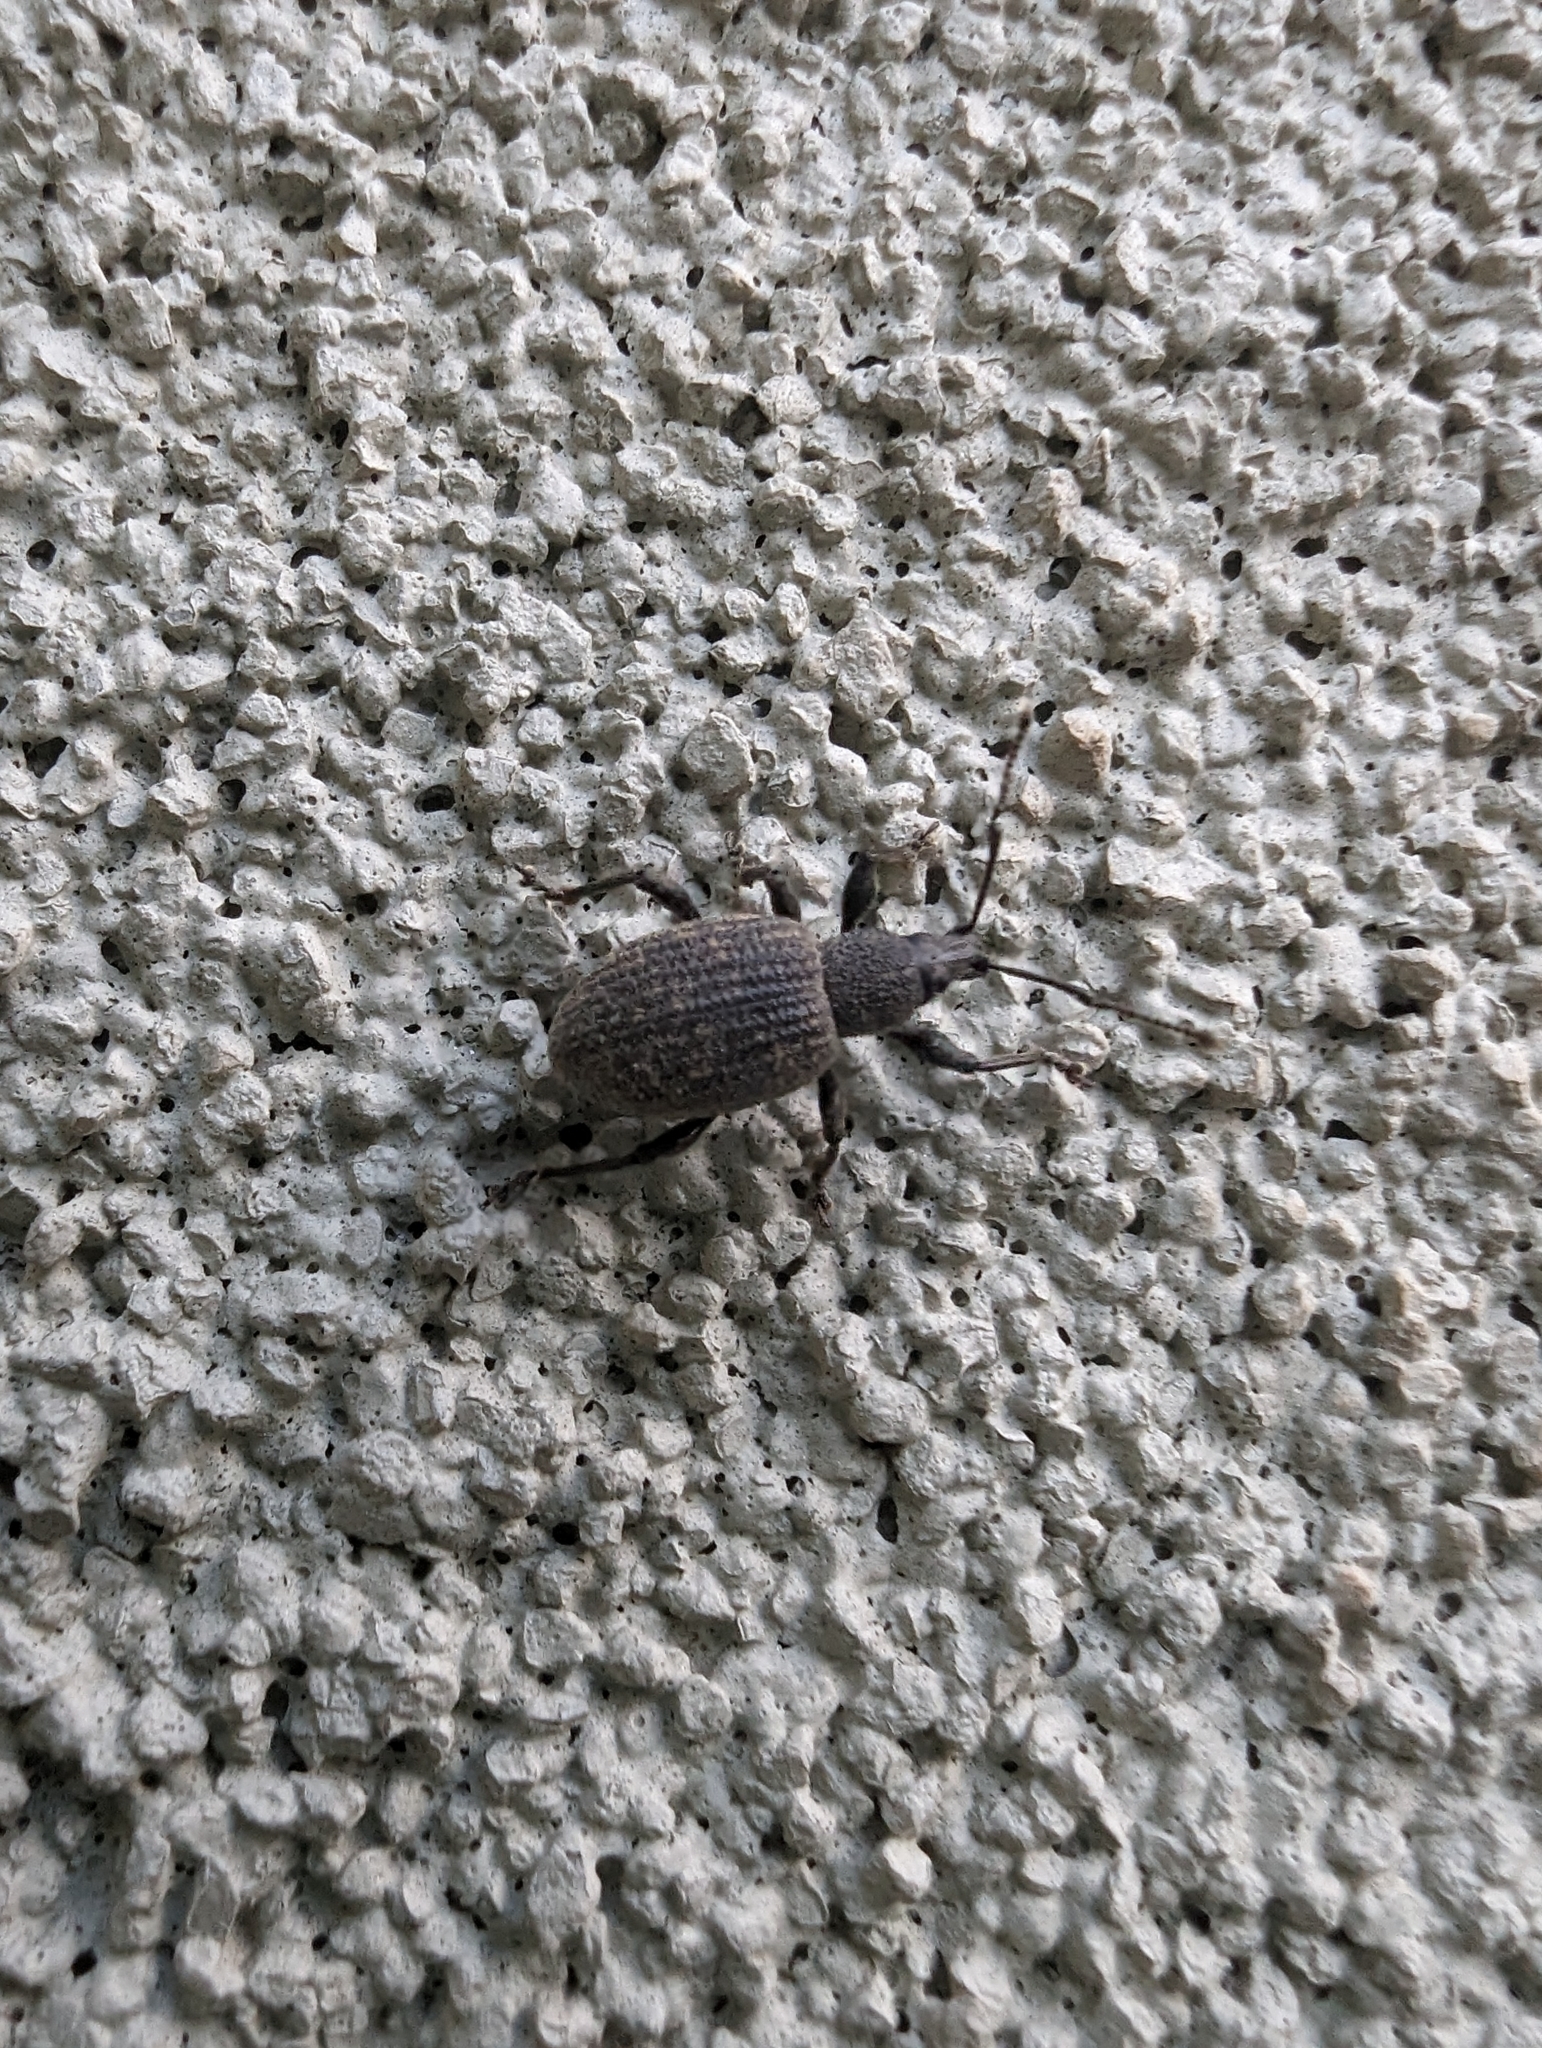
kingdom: Animalia
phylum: Arthropoda
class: Insecta
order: Coleoptera
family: Curculionidae
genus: Otiorhynchus
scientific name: Otiorhynchus sulcatus
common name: Black vine weevil
